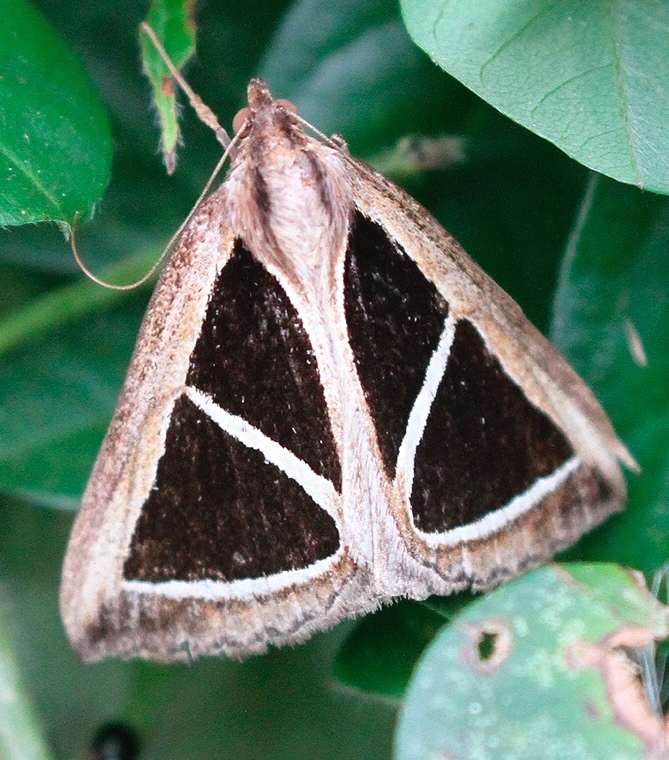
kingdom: Animalia
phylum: Arthropoda
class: Insecta
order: Lepidoptera
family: Erebidae
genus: Parachalciope
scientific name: Parachalciope benitensis
